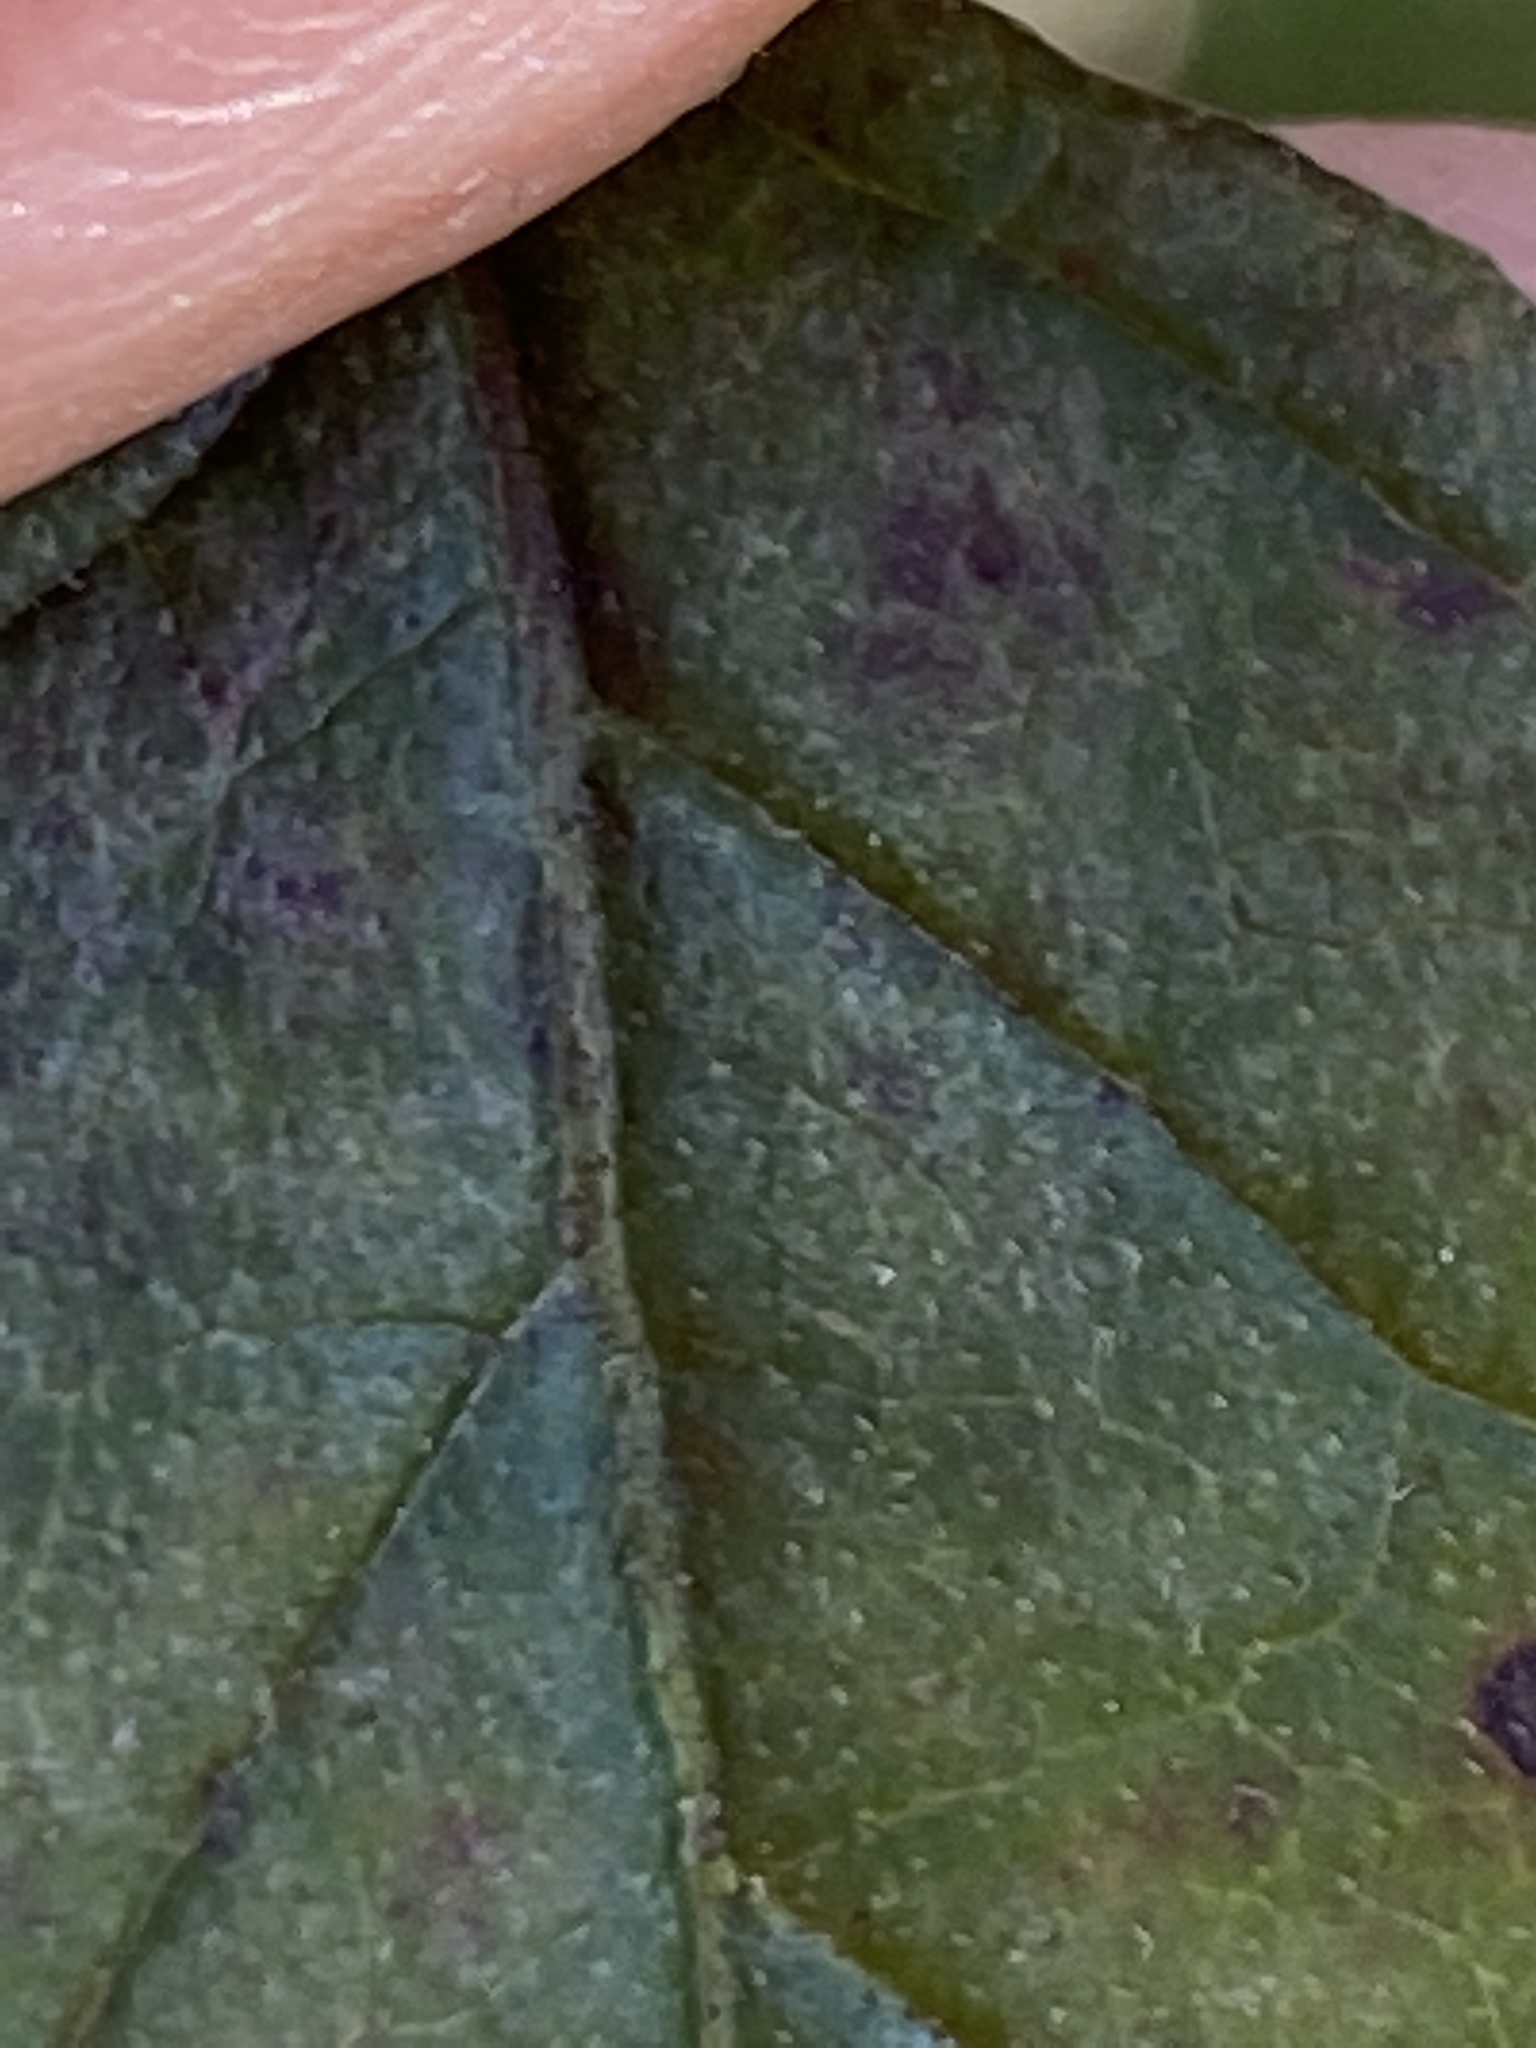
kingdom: Plantae
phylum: Tracheophyta
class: Magnoliopsida
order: Cornales
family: Cornaceae
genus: Cornus
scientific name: Cornus asperifolia
